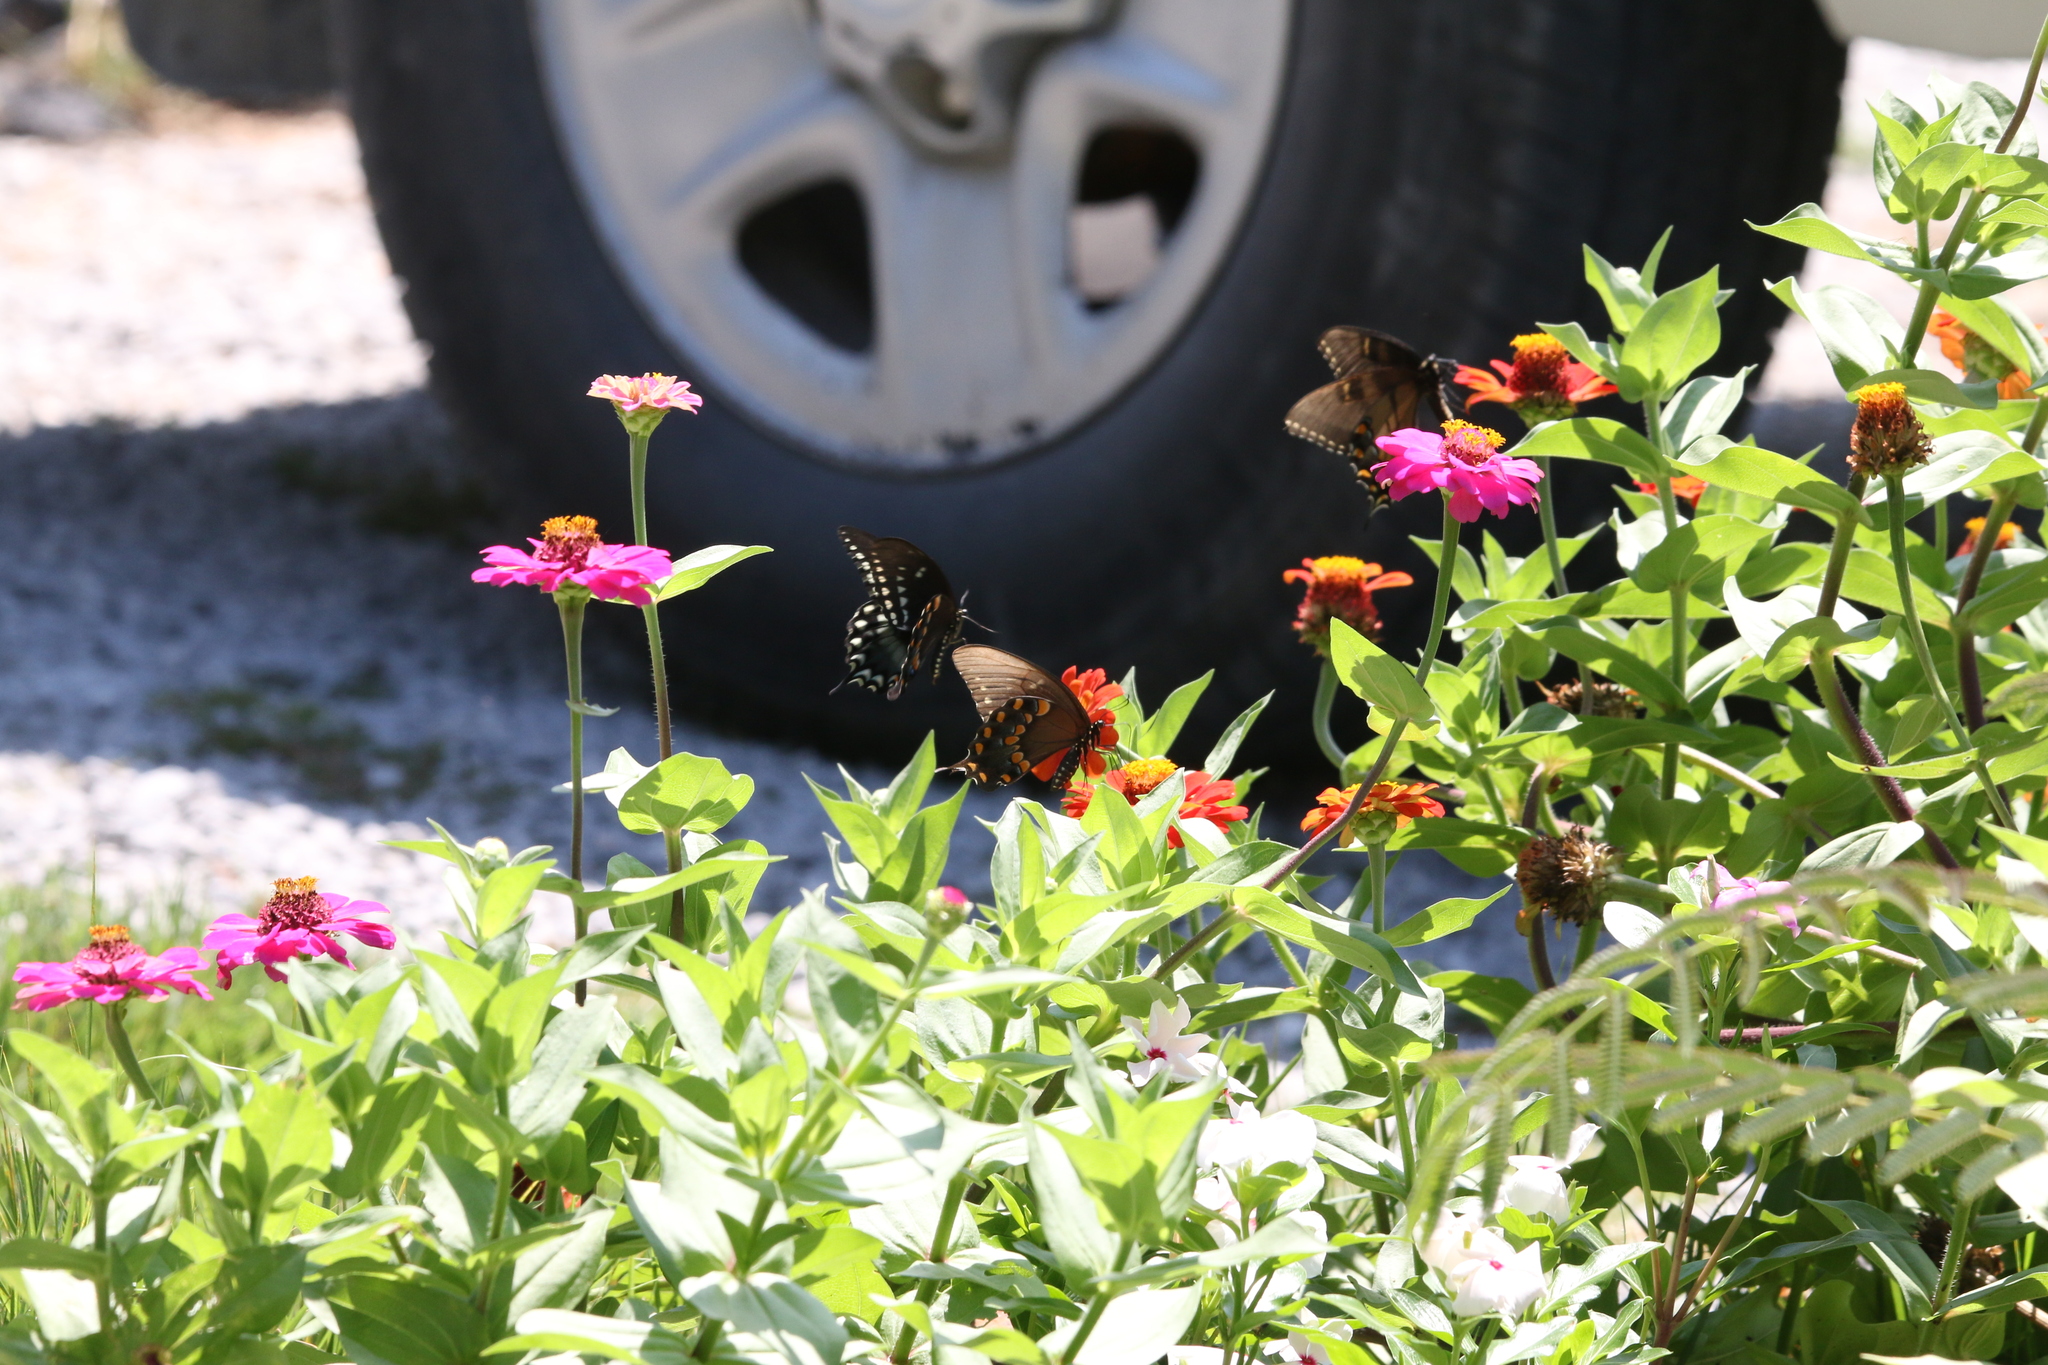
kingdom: Animalia
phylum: Arthropoda
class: Insecta
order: Lepidoptera
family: Papilionidae
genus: Papilio
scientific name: Papilio troilus
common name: Spicebush swallowtail
